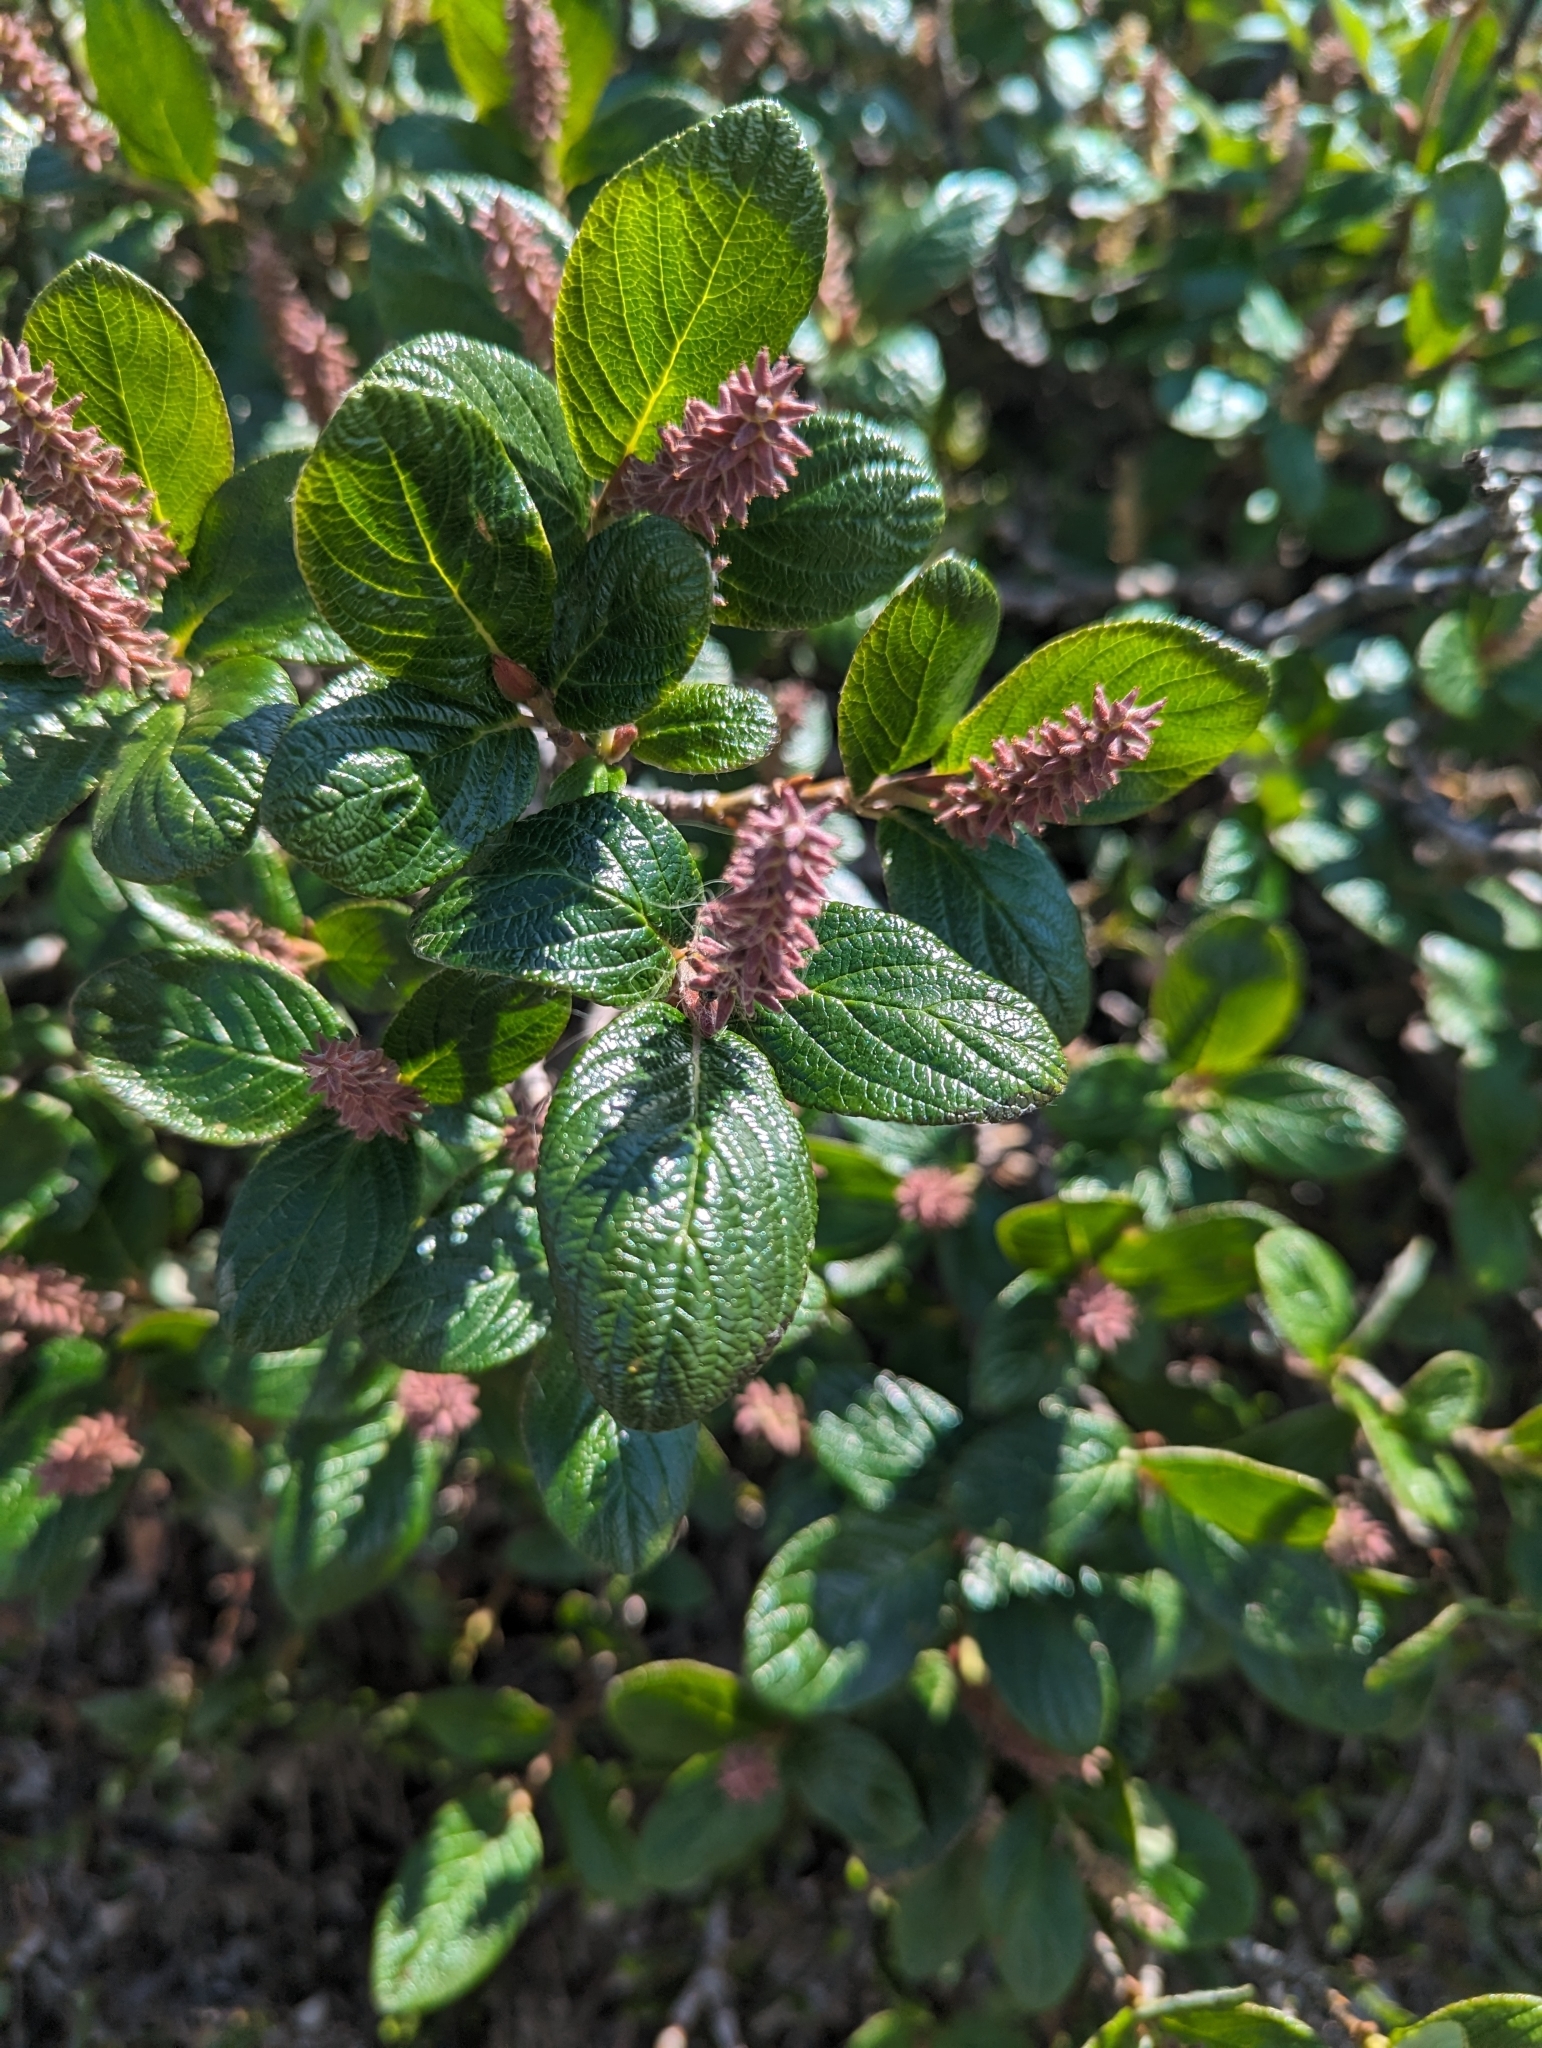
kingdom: Plantae
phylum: Tracheophyta
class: Magnoliopsida
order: Malpighiales
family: Salicaceae
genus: Salix
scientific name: Salix vestita
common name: Hairy willow
